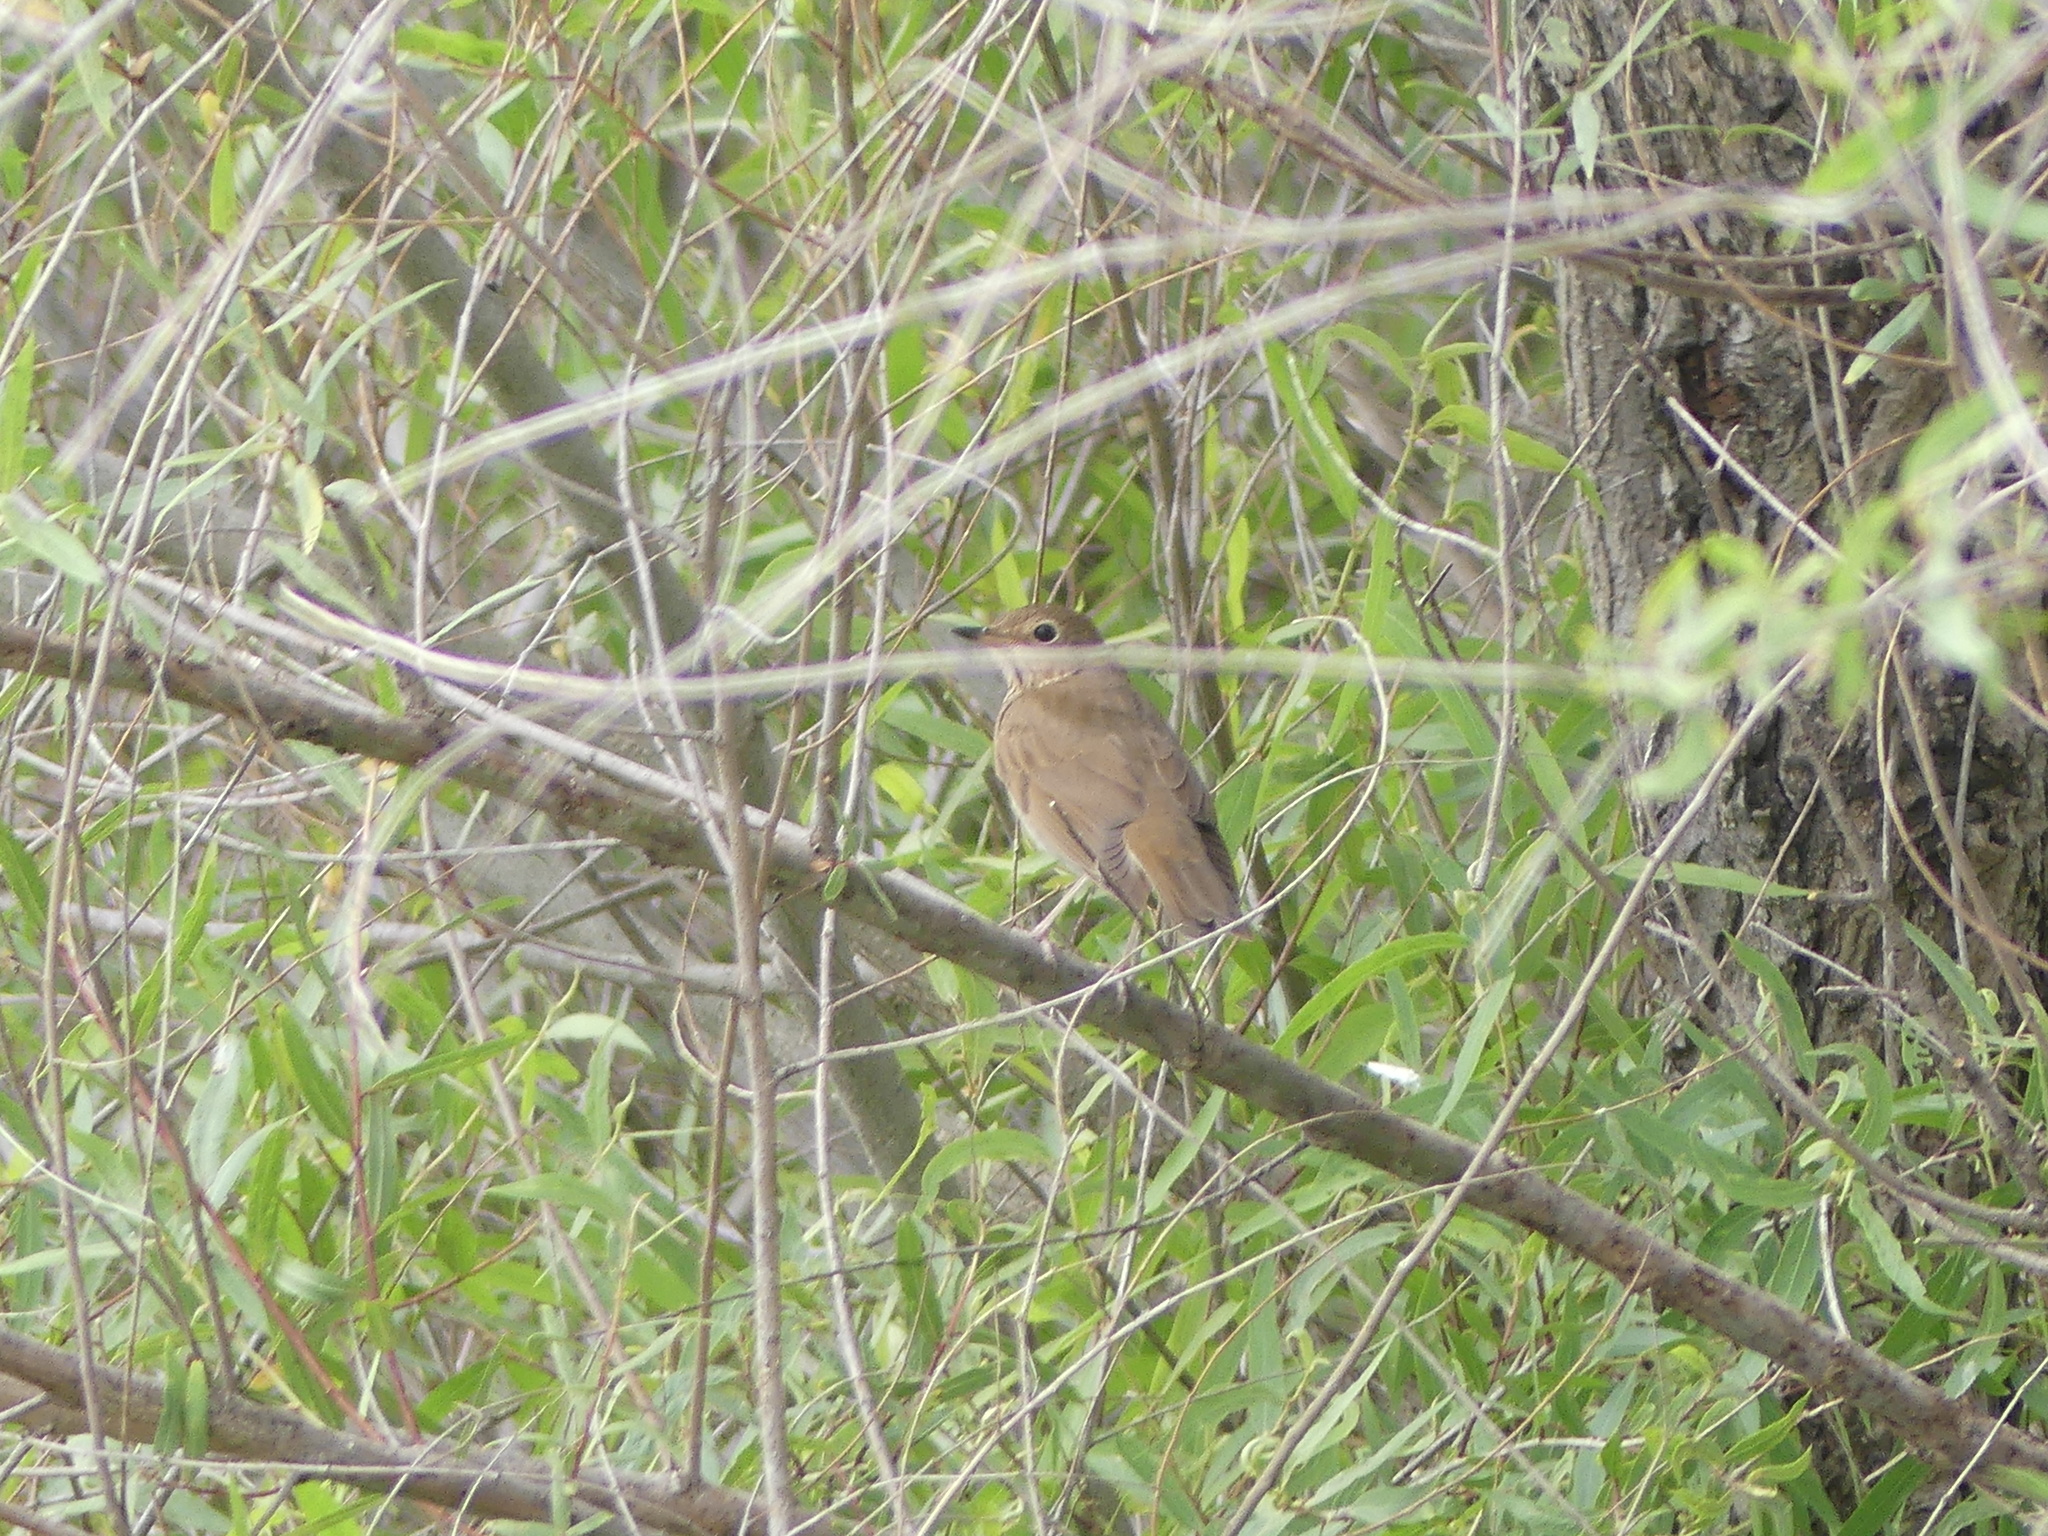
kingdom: Animalia
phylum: Chordata
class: Aves
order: Passeriformes
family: Turdidae
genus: Catharus
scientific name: Catharus ustulatus
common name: Swainson's thrush
